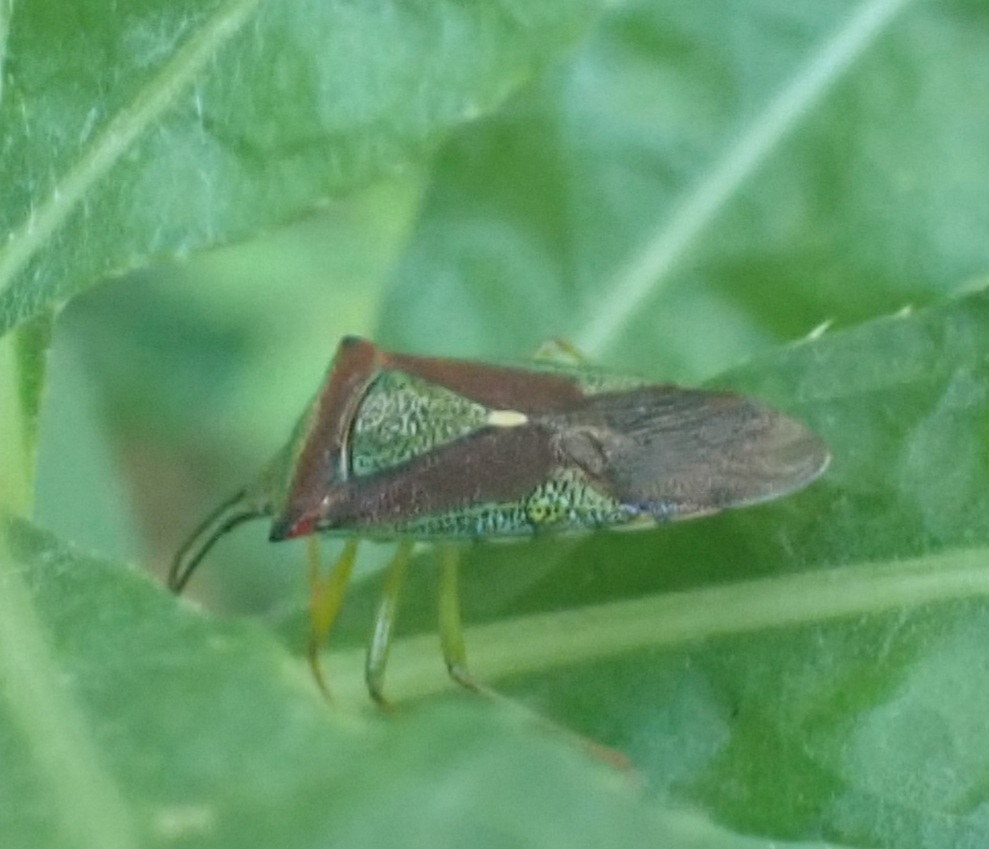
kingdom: Animalia
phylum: Arthropoda
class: Insecta
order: Hemiptera
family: Acanthosomatidae
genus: Acanthosoma
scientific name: Acanthosoma spinicolle
